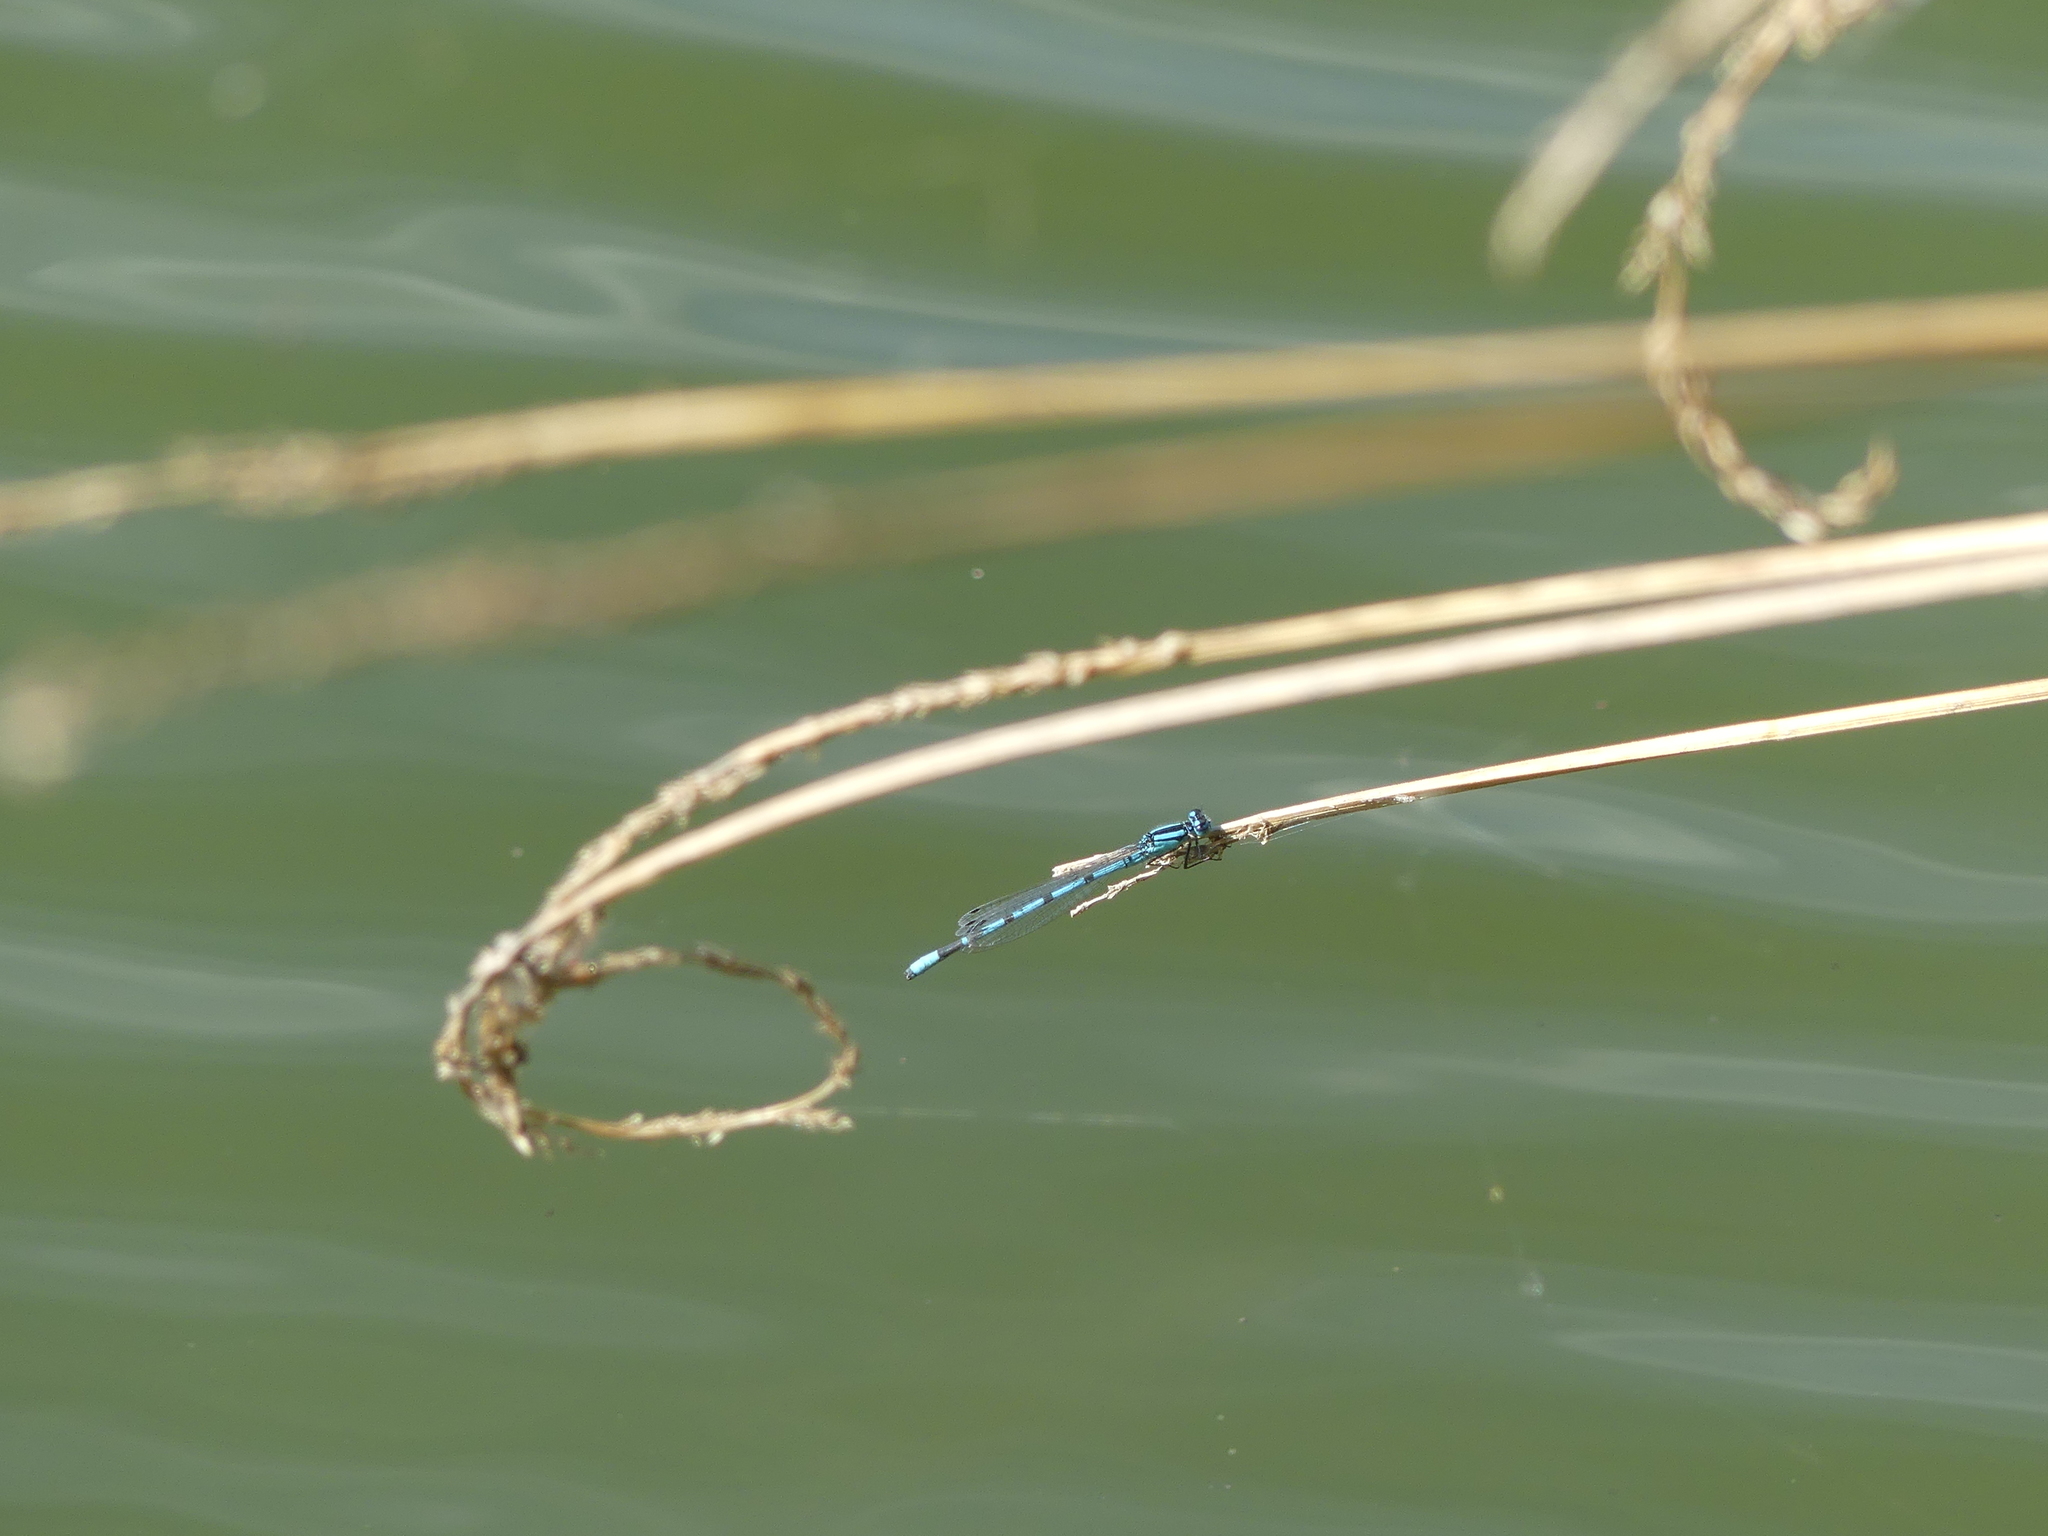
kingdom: Animalia
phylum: Arthropoda
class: Insecta
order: Odonata
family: Coenagrionidae
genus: Enallagma
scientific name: Enallagma cyathigerum
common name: Common blue damselfly
